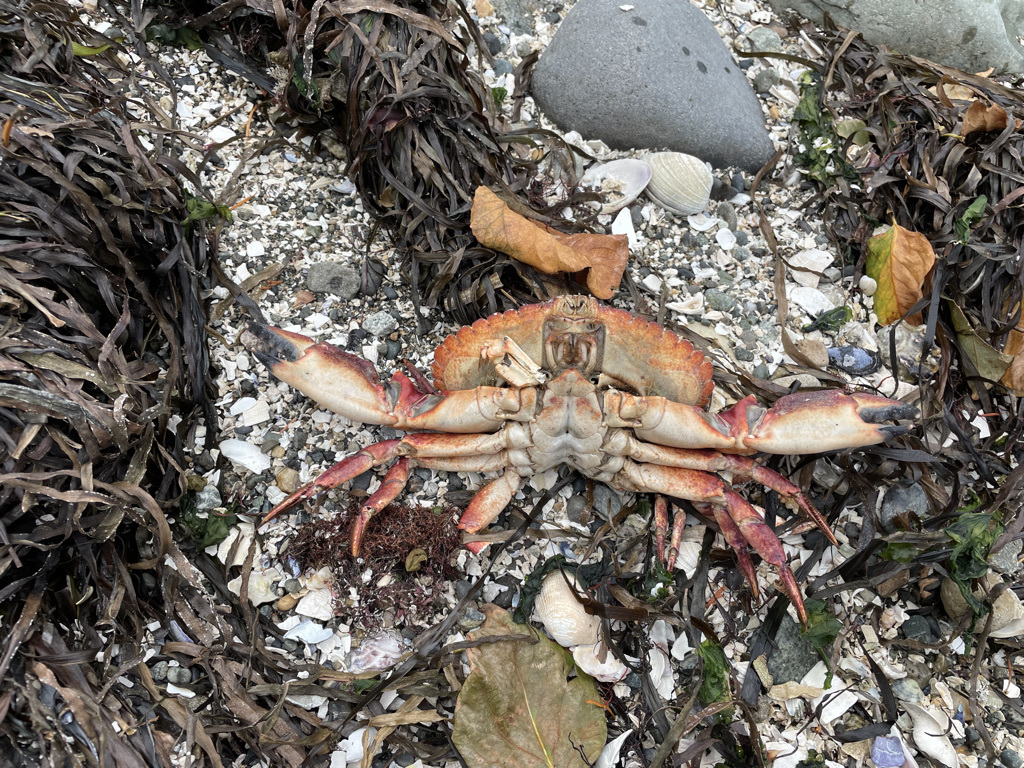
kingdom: Animalia
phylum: Arthropoda
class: Malacostraca
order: Decapoda
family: Cancridae
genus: Cancer
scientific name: Cancer productus
